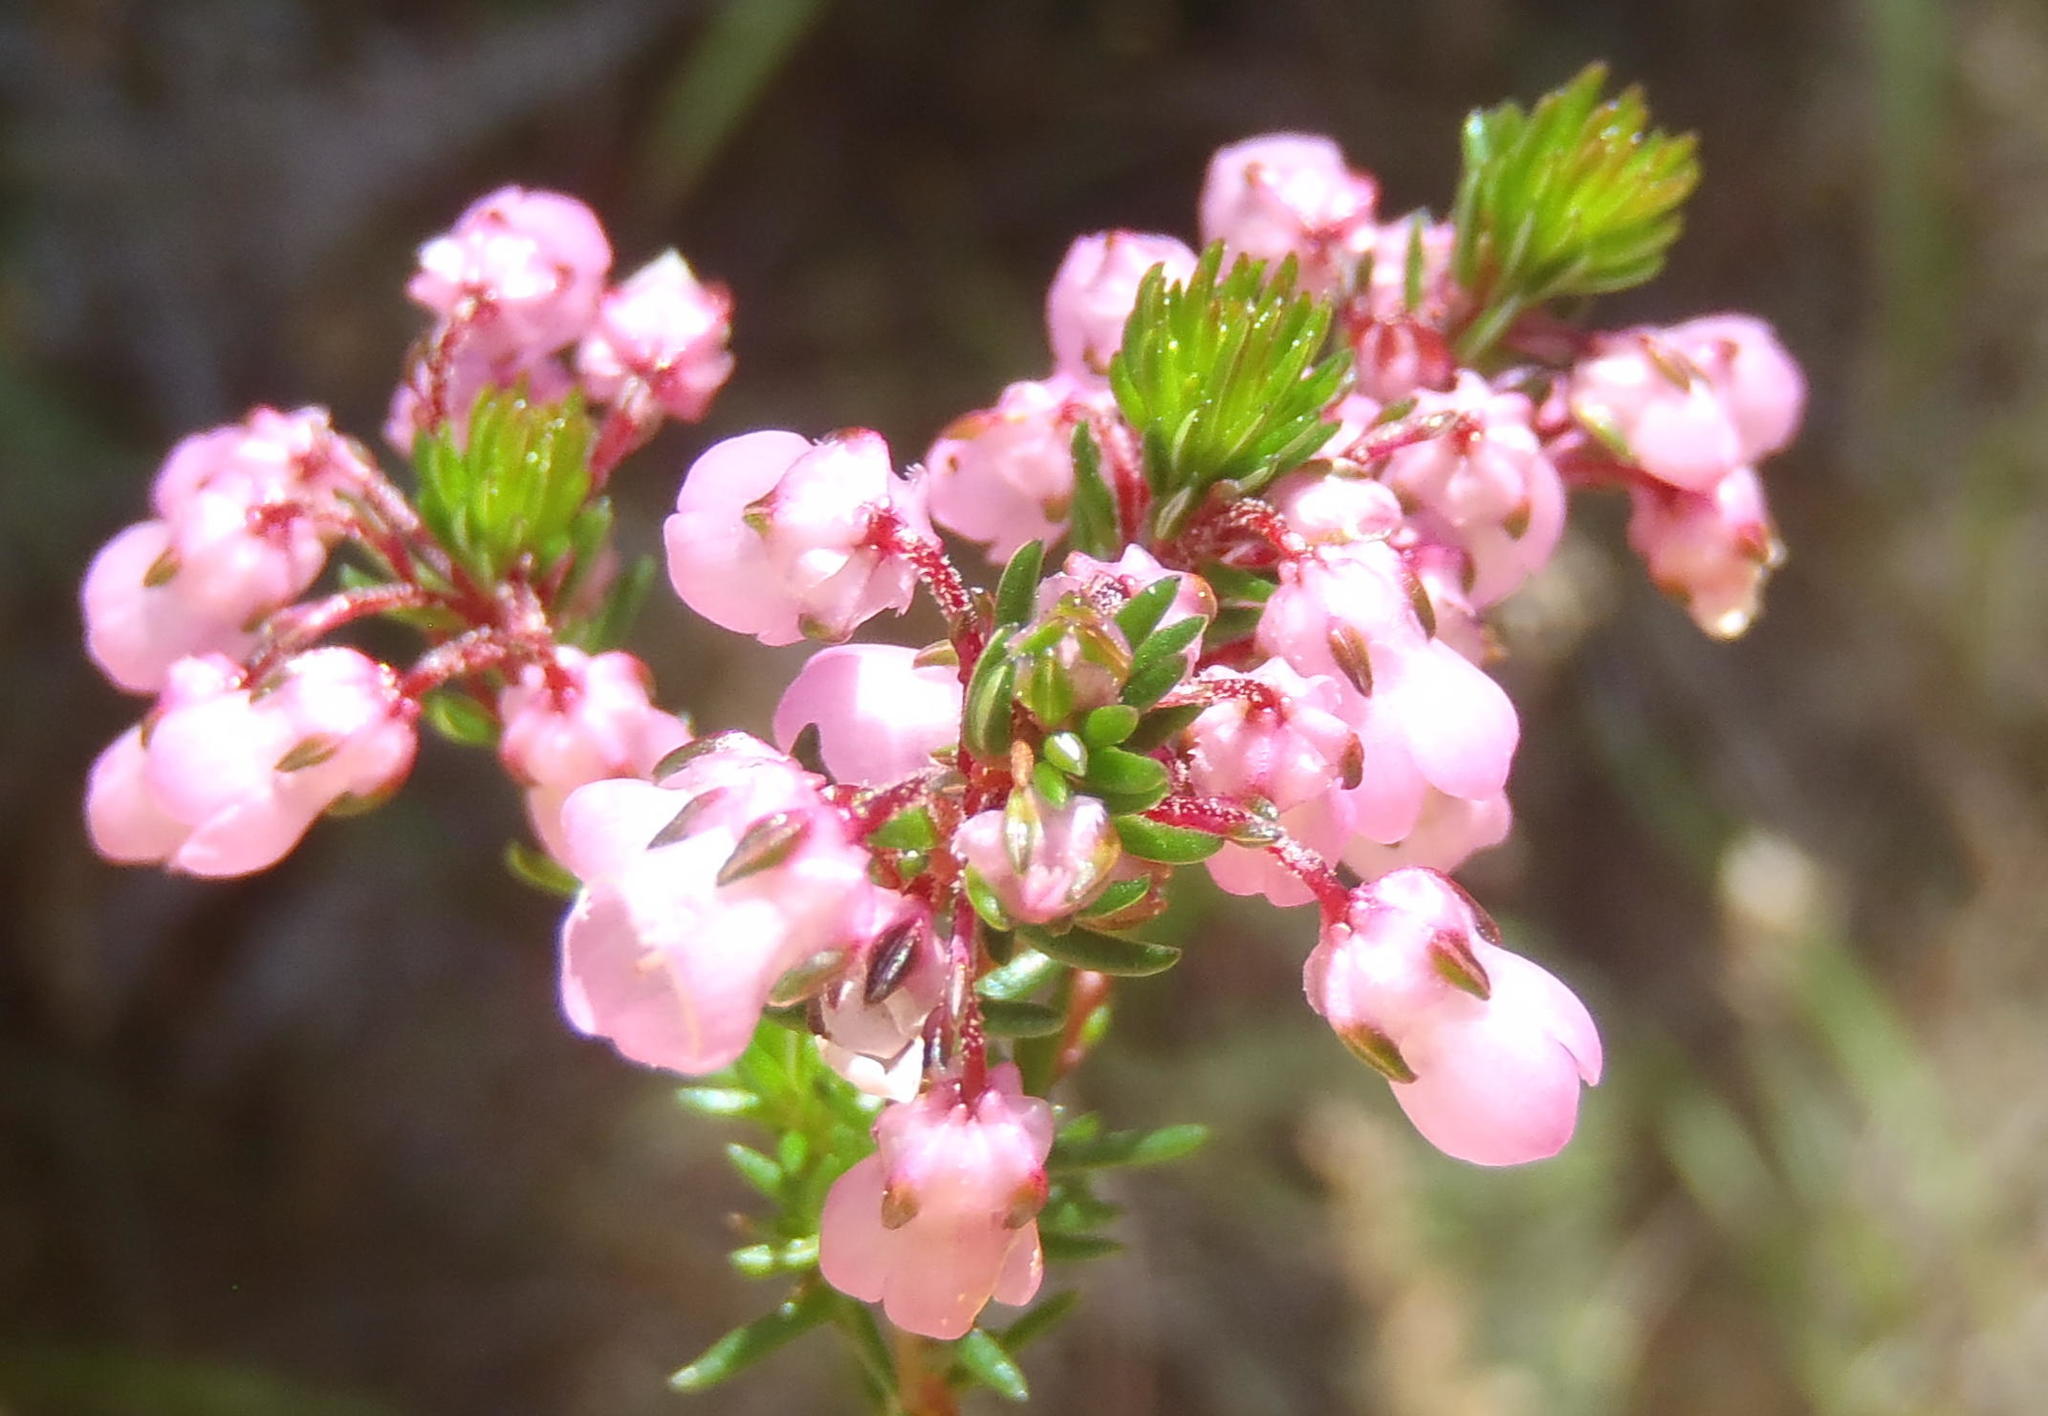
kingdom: Plantae
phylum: Tracheophyta
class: Magnoliopsida
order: Ericales
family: Ericaceae
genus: Erica
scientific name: Erica cubica
